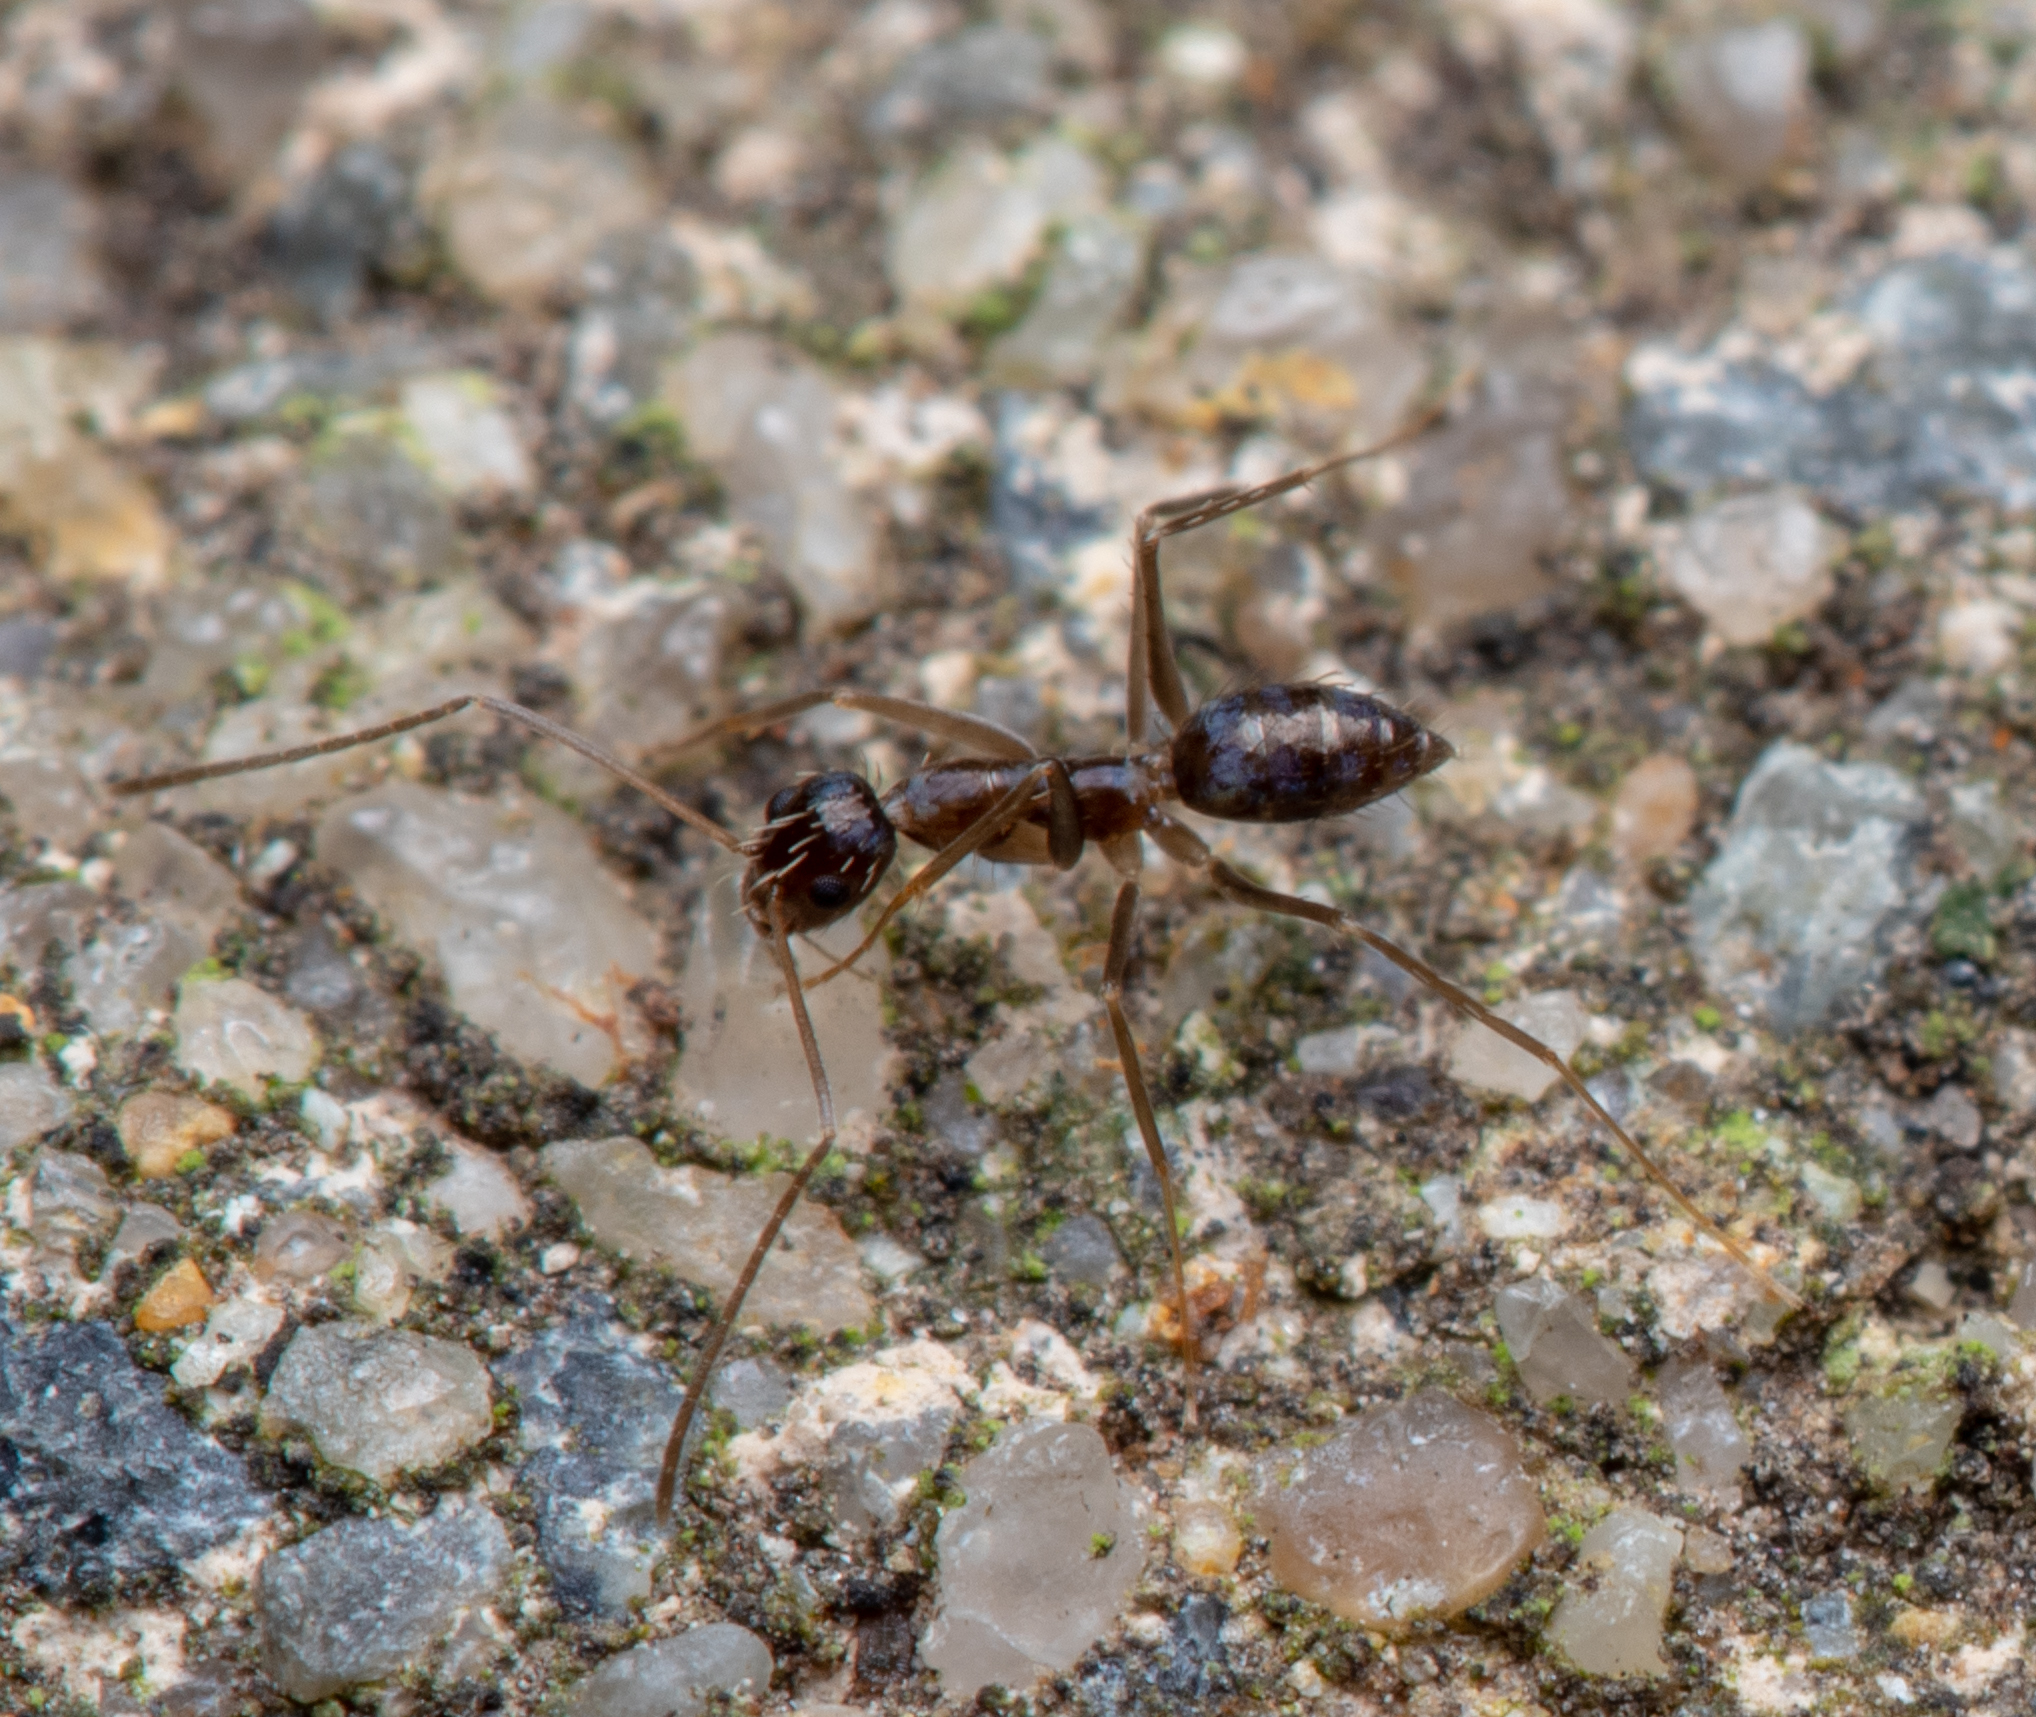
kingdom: Animalia
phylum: Arthropoda
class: Insecta
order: Hymenoptera
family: Formicidae
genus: Paratrechina
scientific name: Paratrechina longicornis
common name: Longhorned crazy ant
